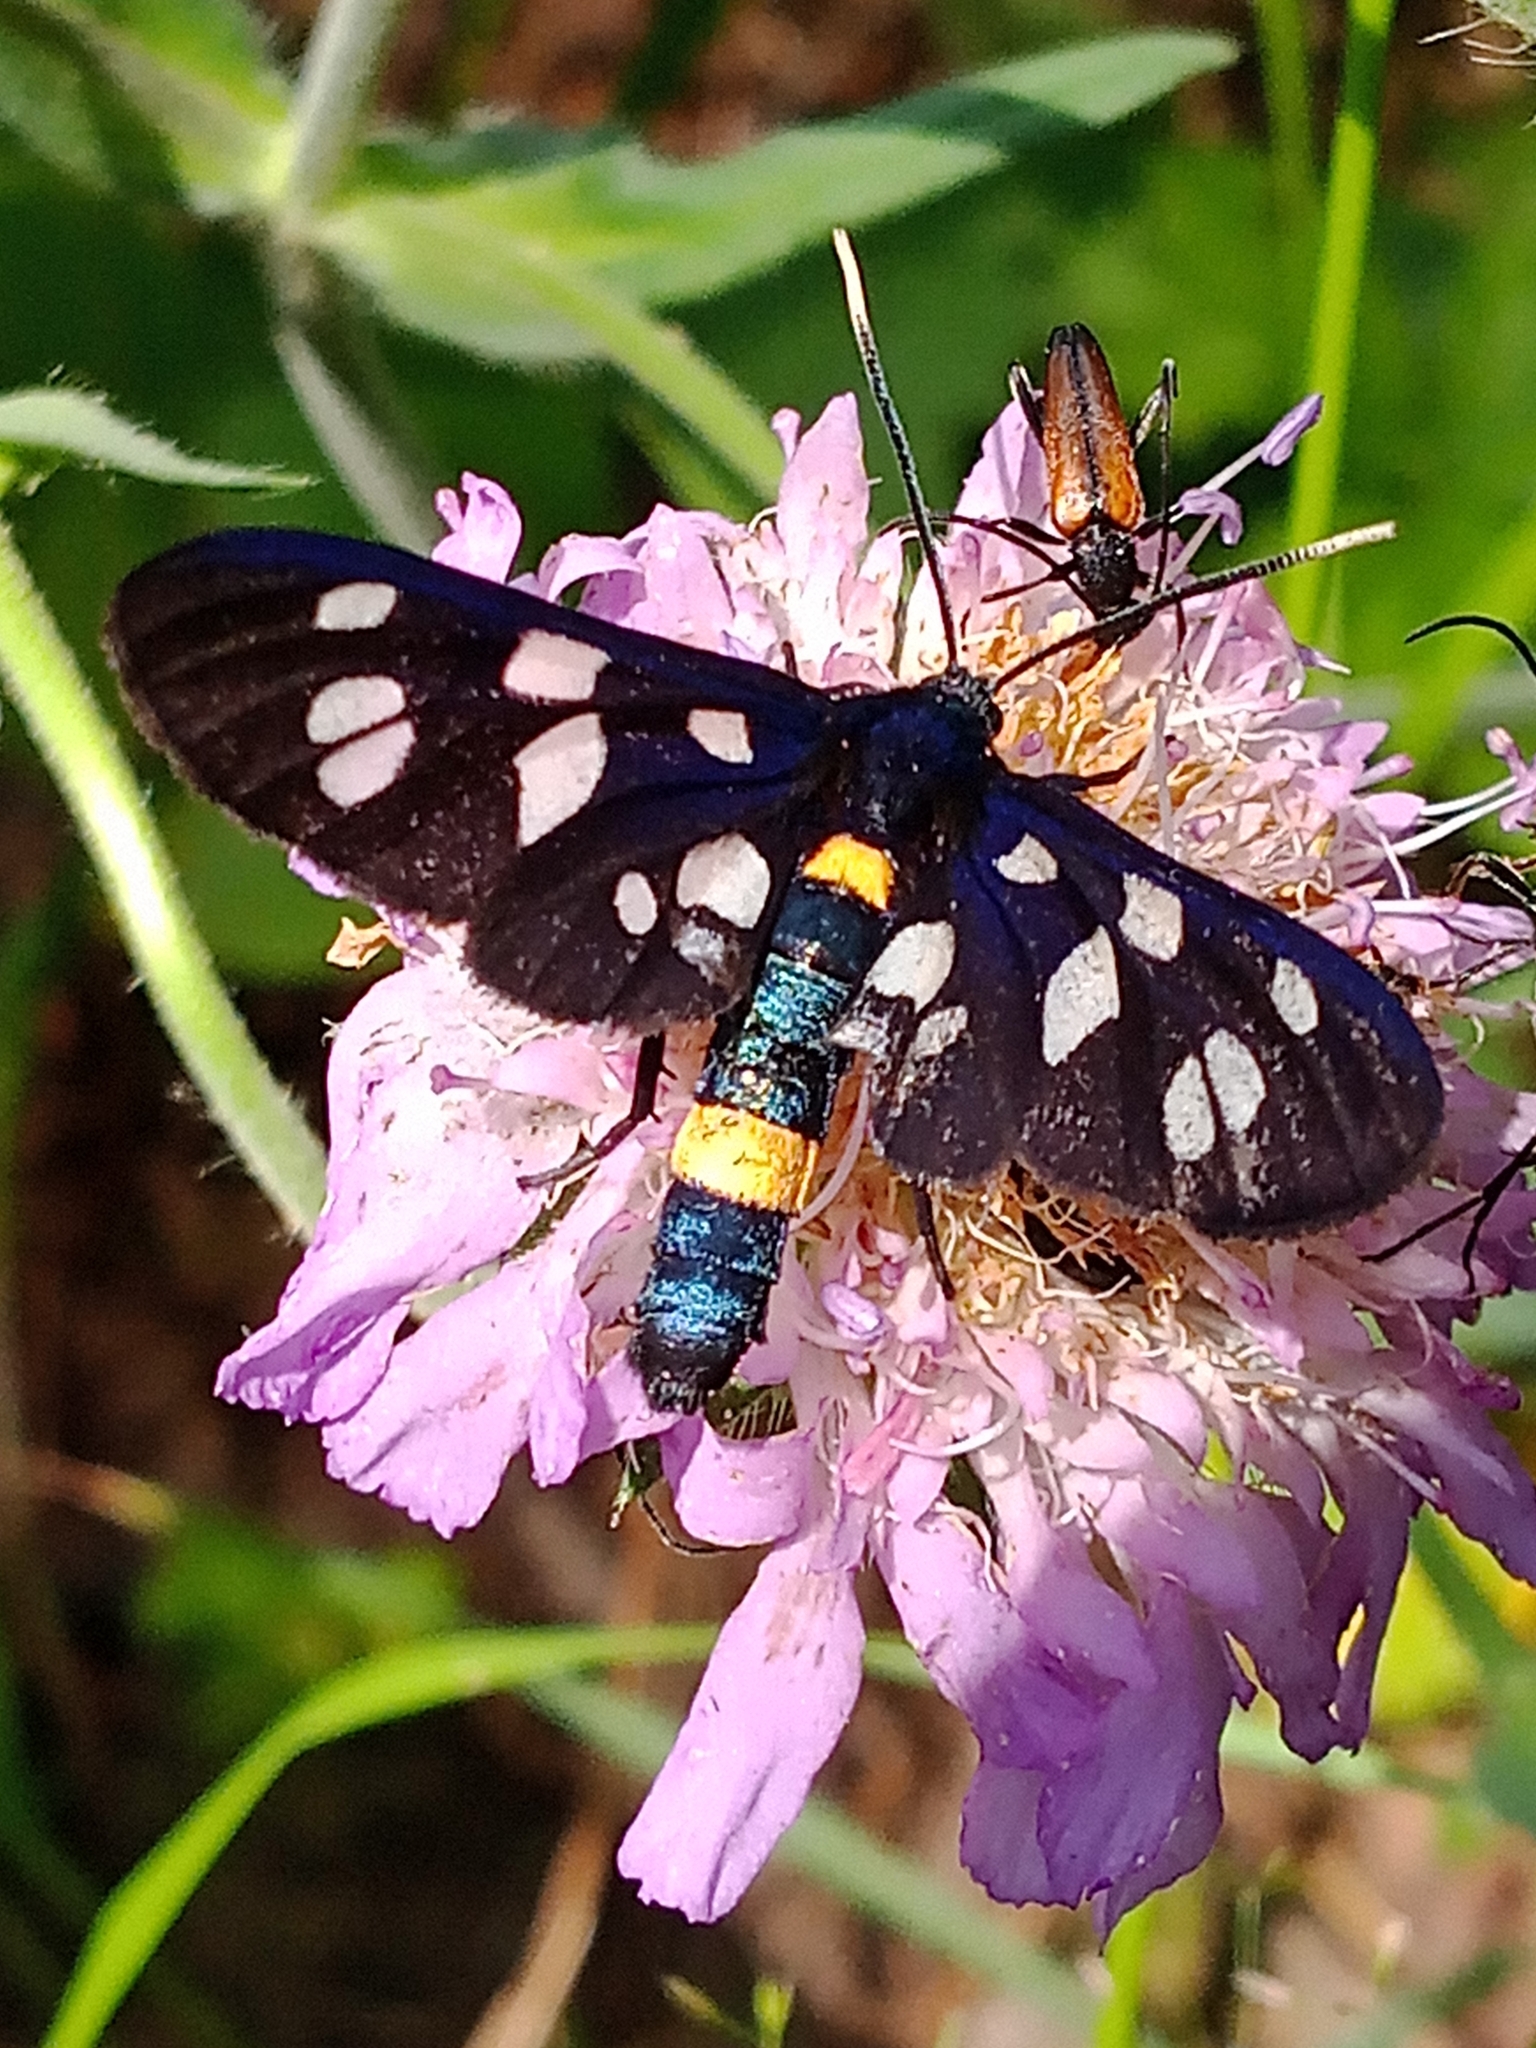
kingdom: Animalia
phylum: Arthropoda
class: Insecta
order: Lepidoptera
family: Erebidae
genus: Amata
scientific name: Amata nigricornis
